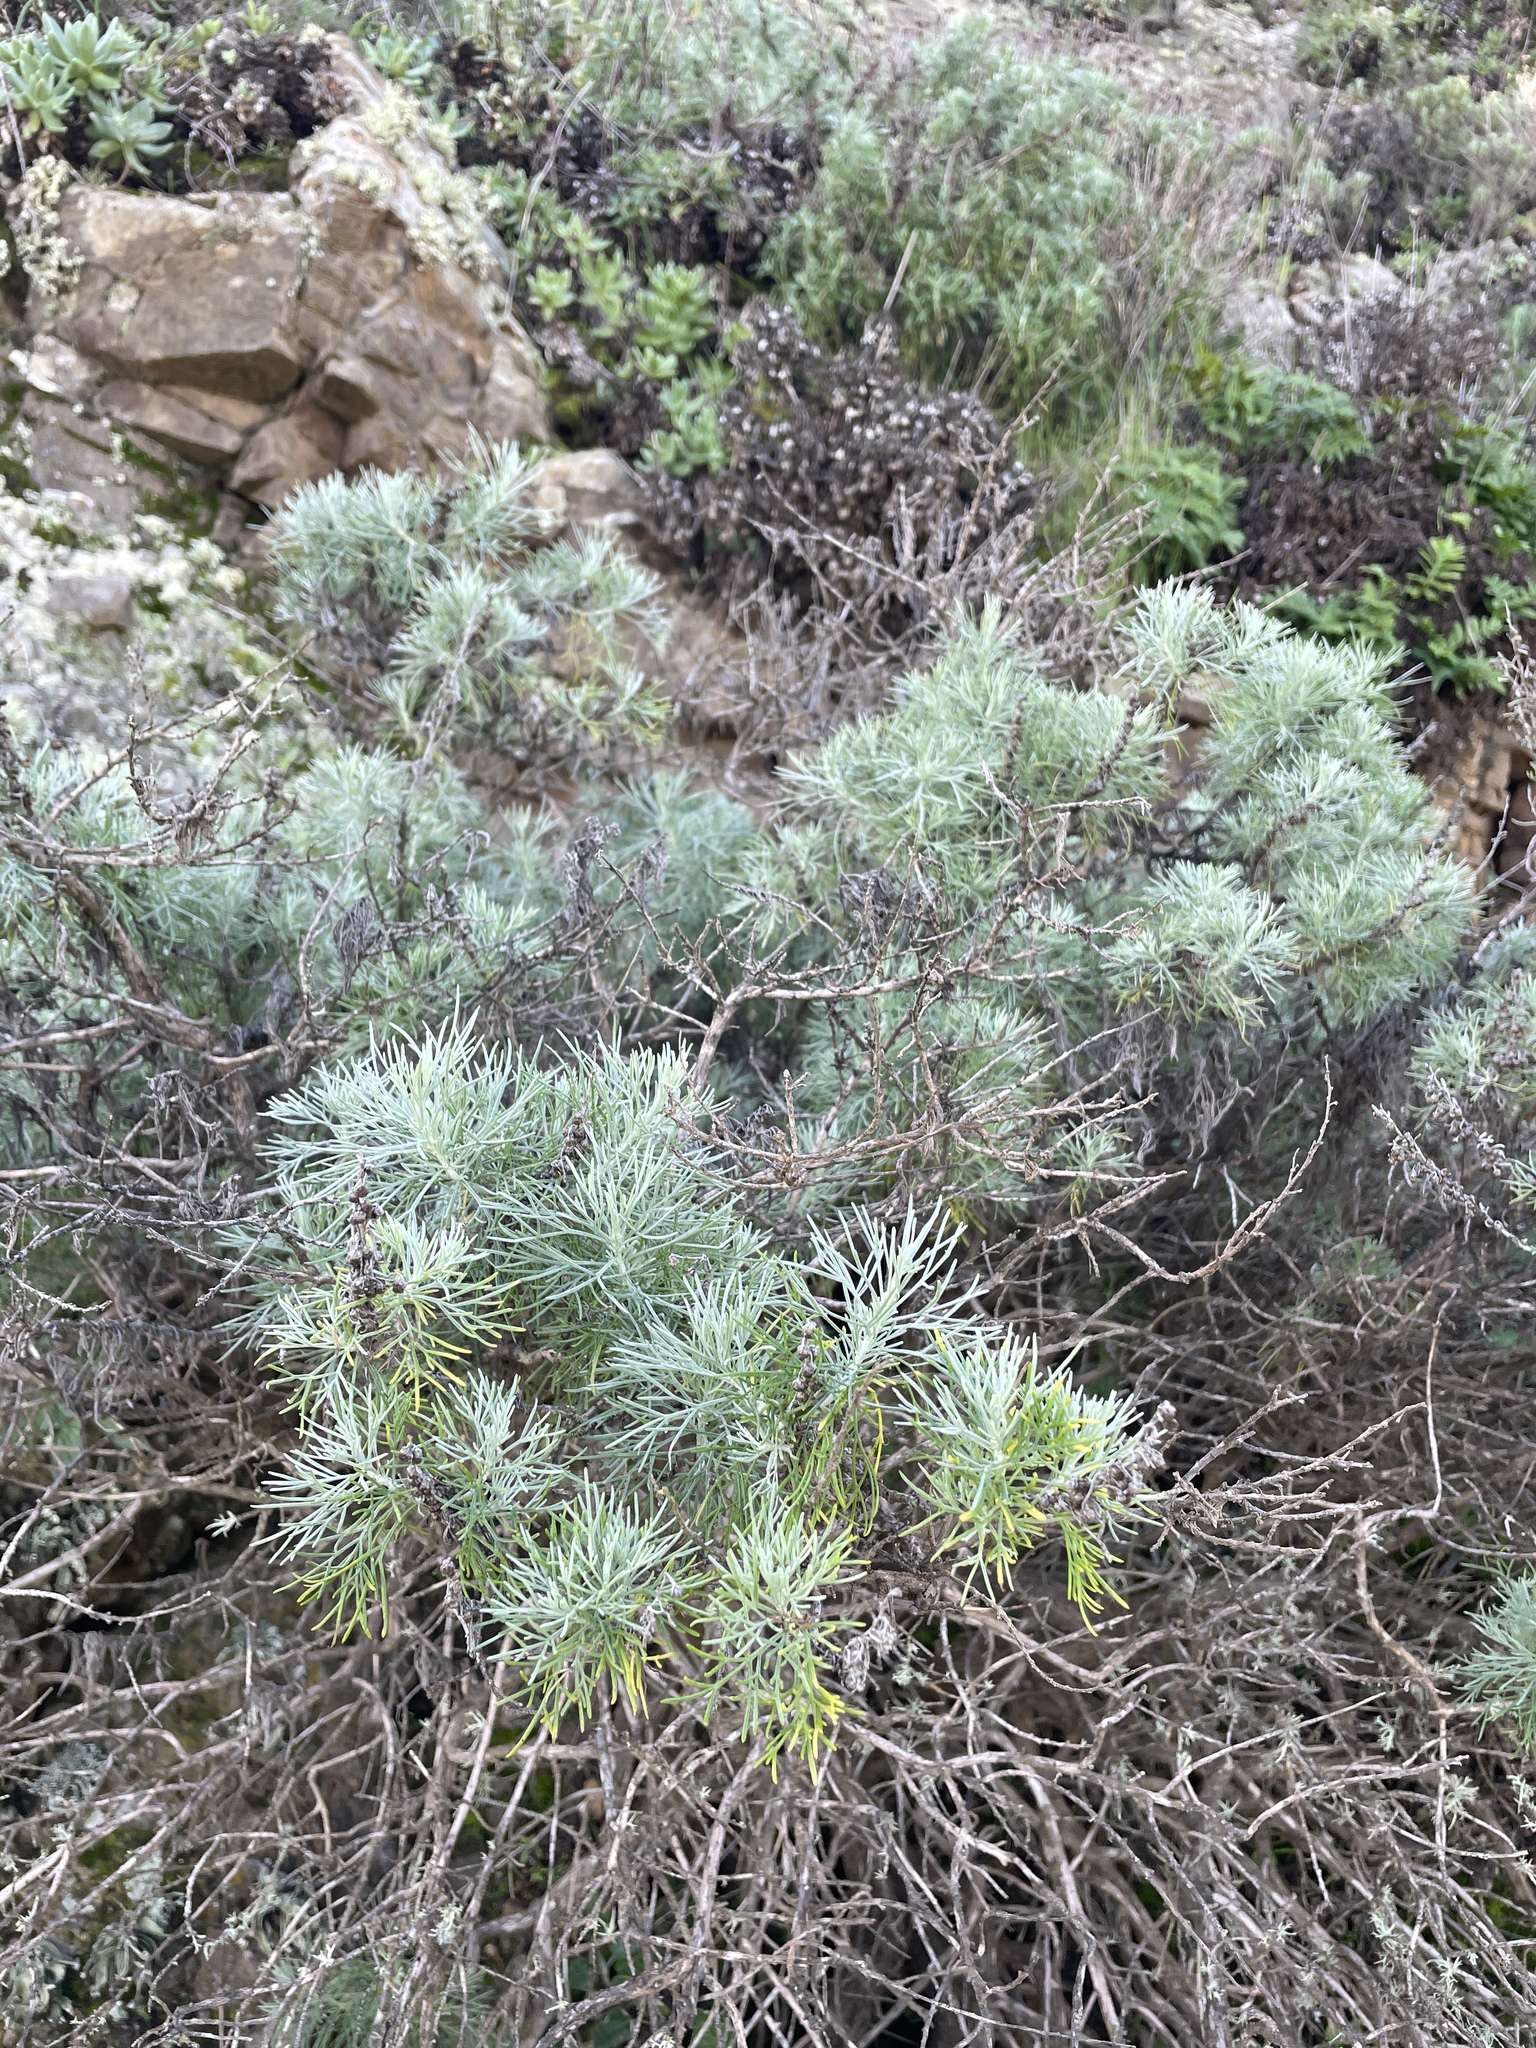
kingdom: Plantae
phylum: Tracheophyta
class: Magnoliopsida
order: Asterales
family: Asteraceae
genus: Artemisia
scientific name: Artemisia californica
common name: California sagebrush
